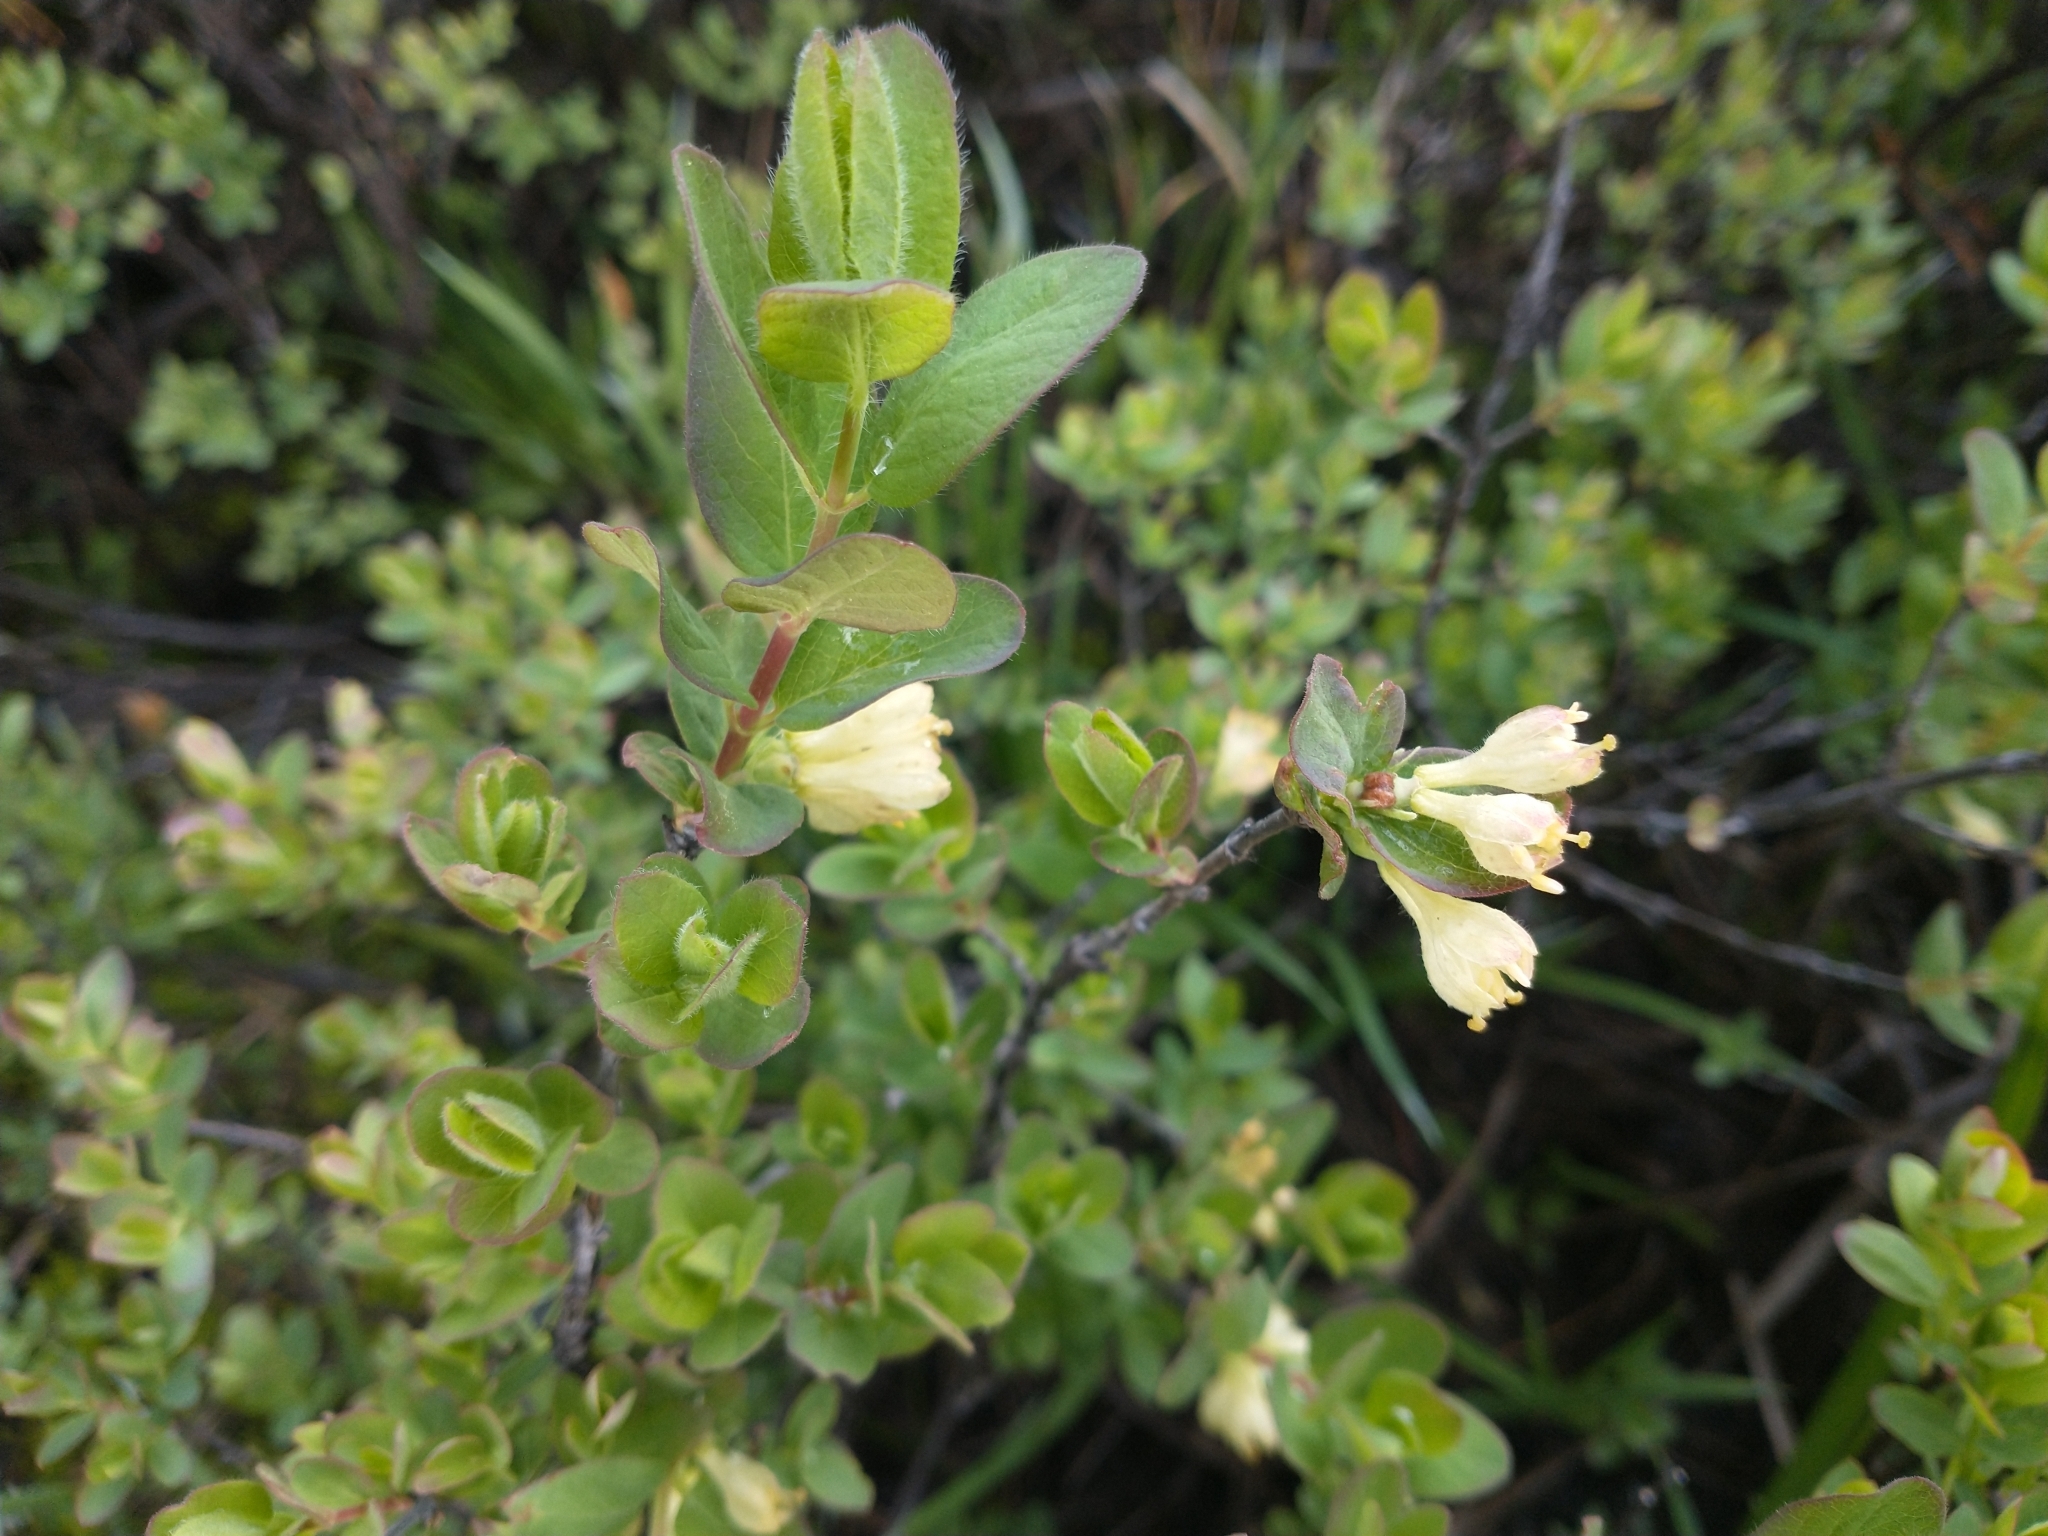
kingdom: Plantae
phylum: Tracheophyta
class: Magnoliopsida
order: Dipsacales
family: Caprifoliaceae
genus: Lonicera
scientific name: Lonicera caerulea
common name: Blue honeysuckle
